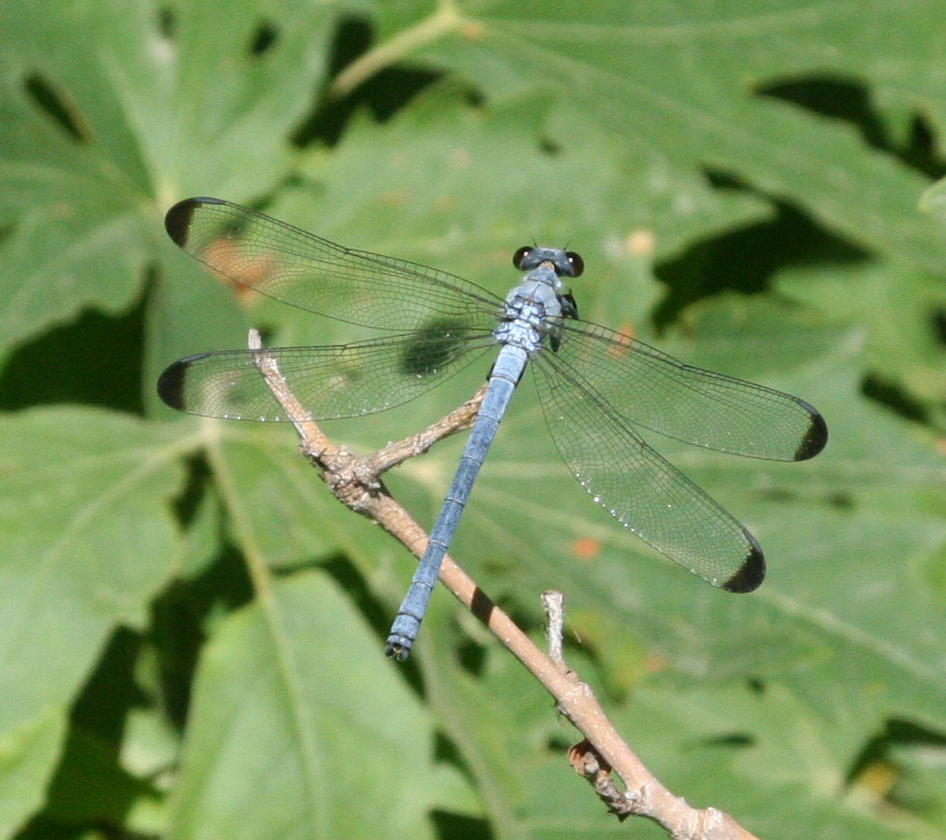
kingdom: Animalia
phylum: Arthropoda
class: Insecta
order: Odonata
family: Euphaeidae
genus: Epallage
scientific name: Epallage fatime
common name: Odalisque
